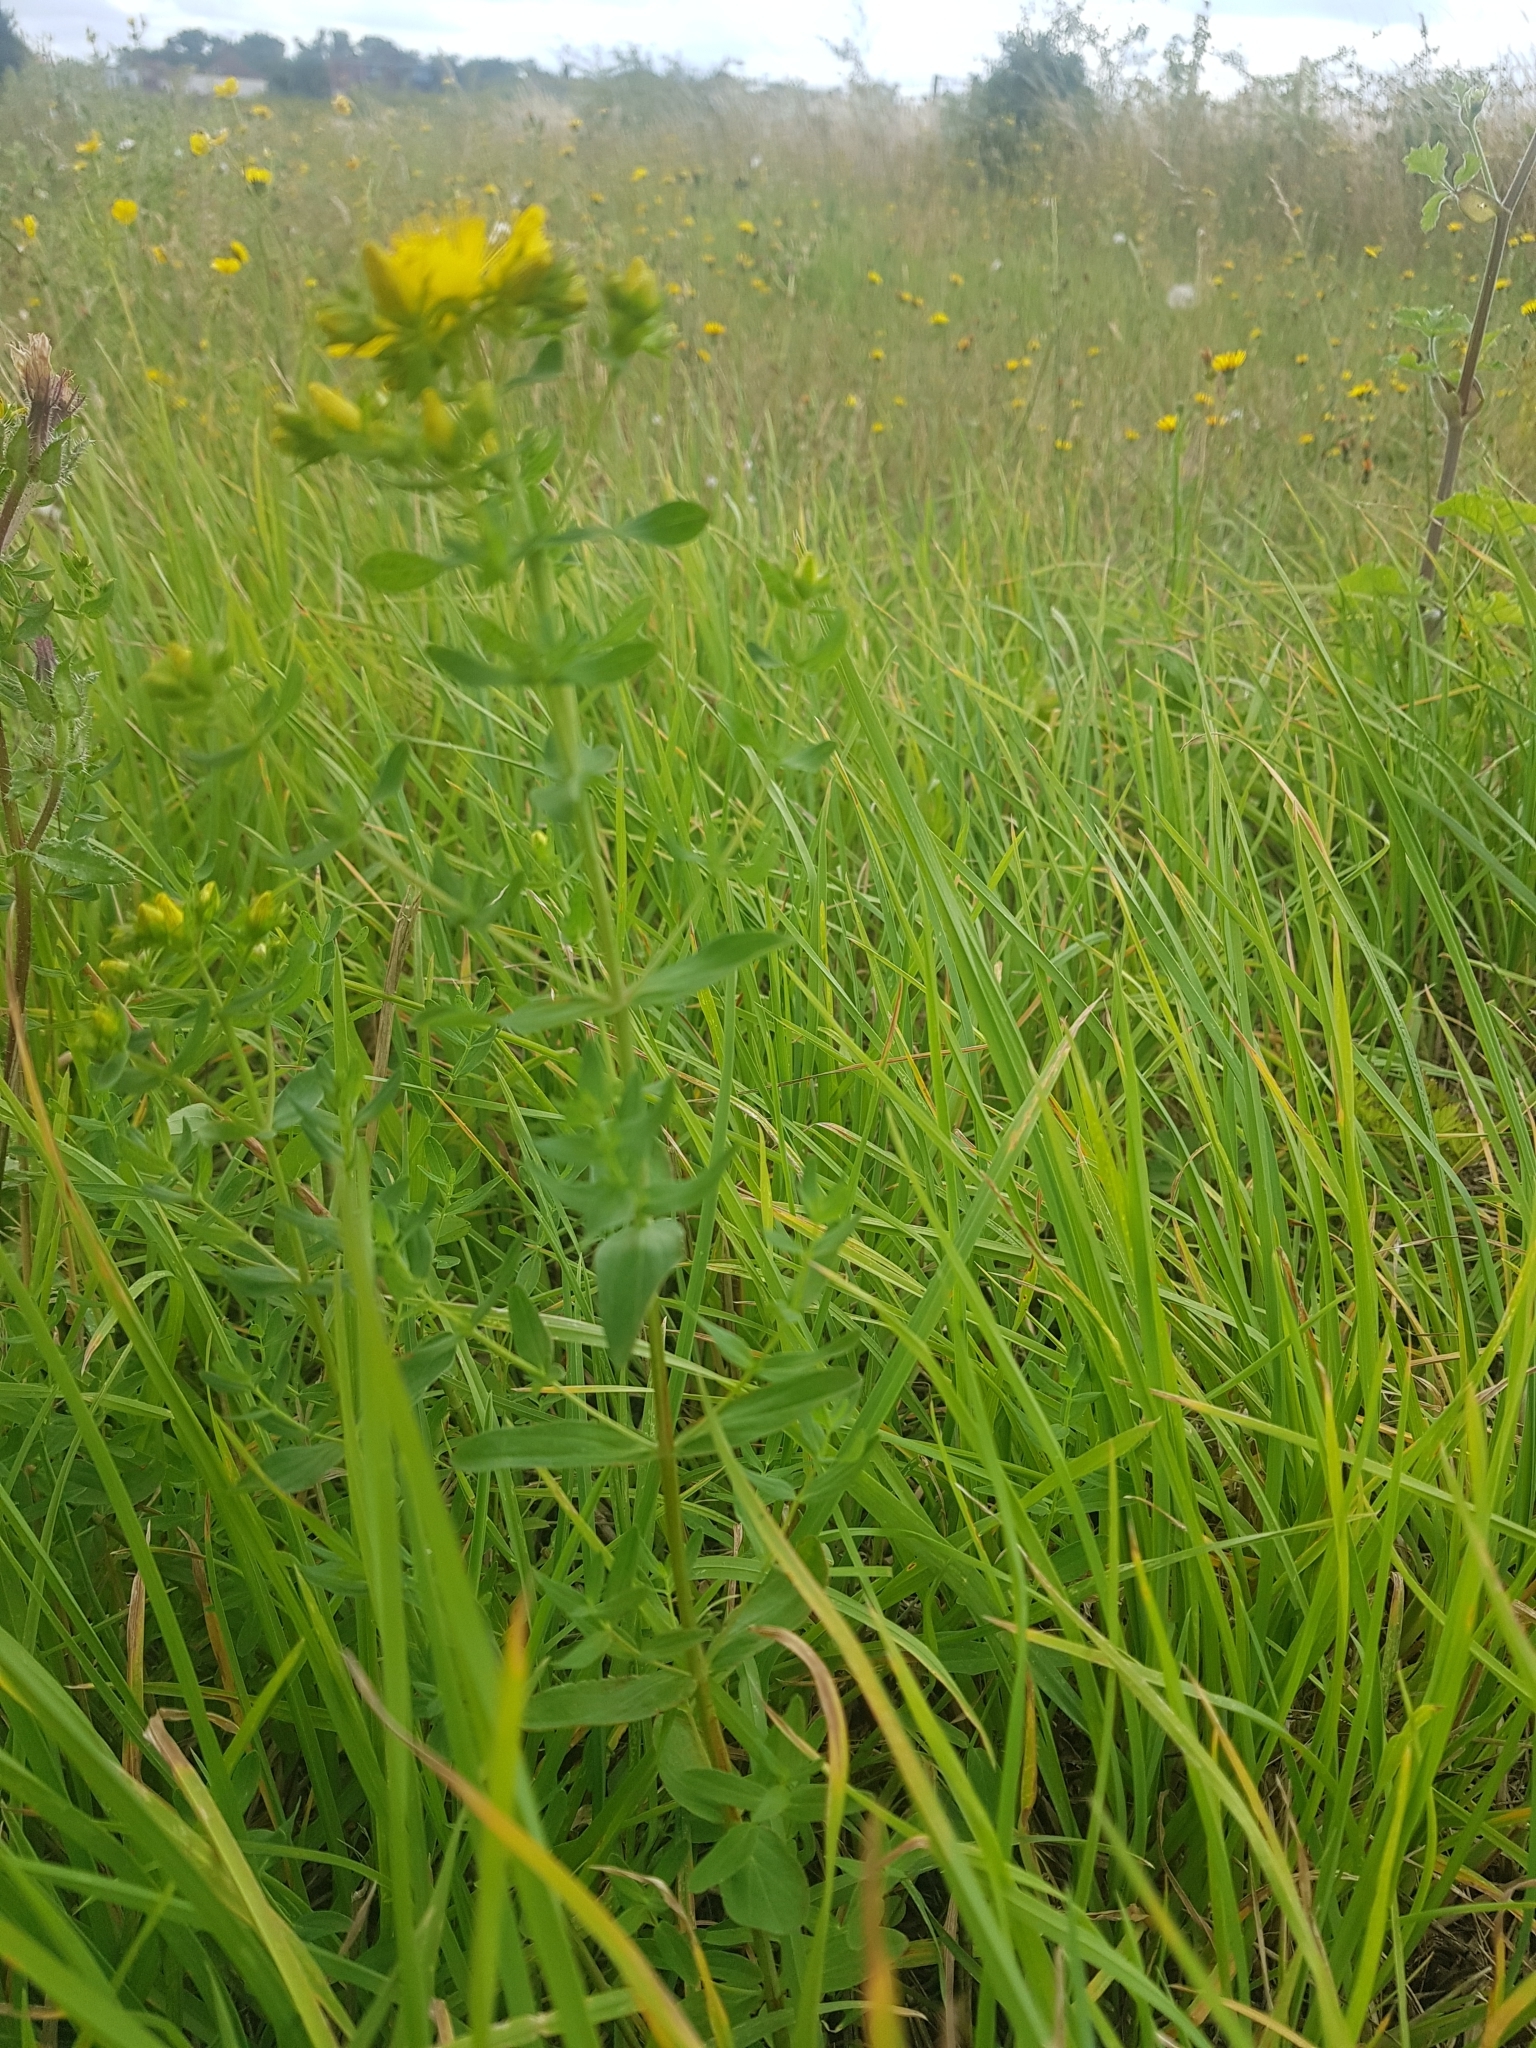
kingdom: Plantae
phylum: Tracheophyta
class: Magnoliopsida
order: Malpighiales
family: Hypericaceae
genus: Hypericum
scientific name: Hypericum perforatum
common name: Common st. johnswort
